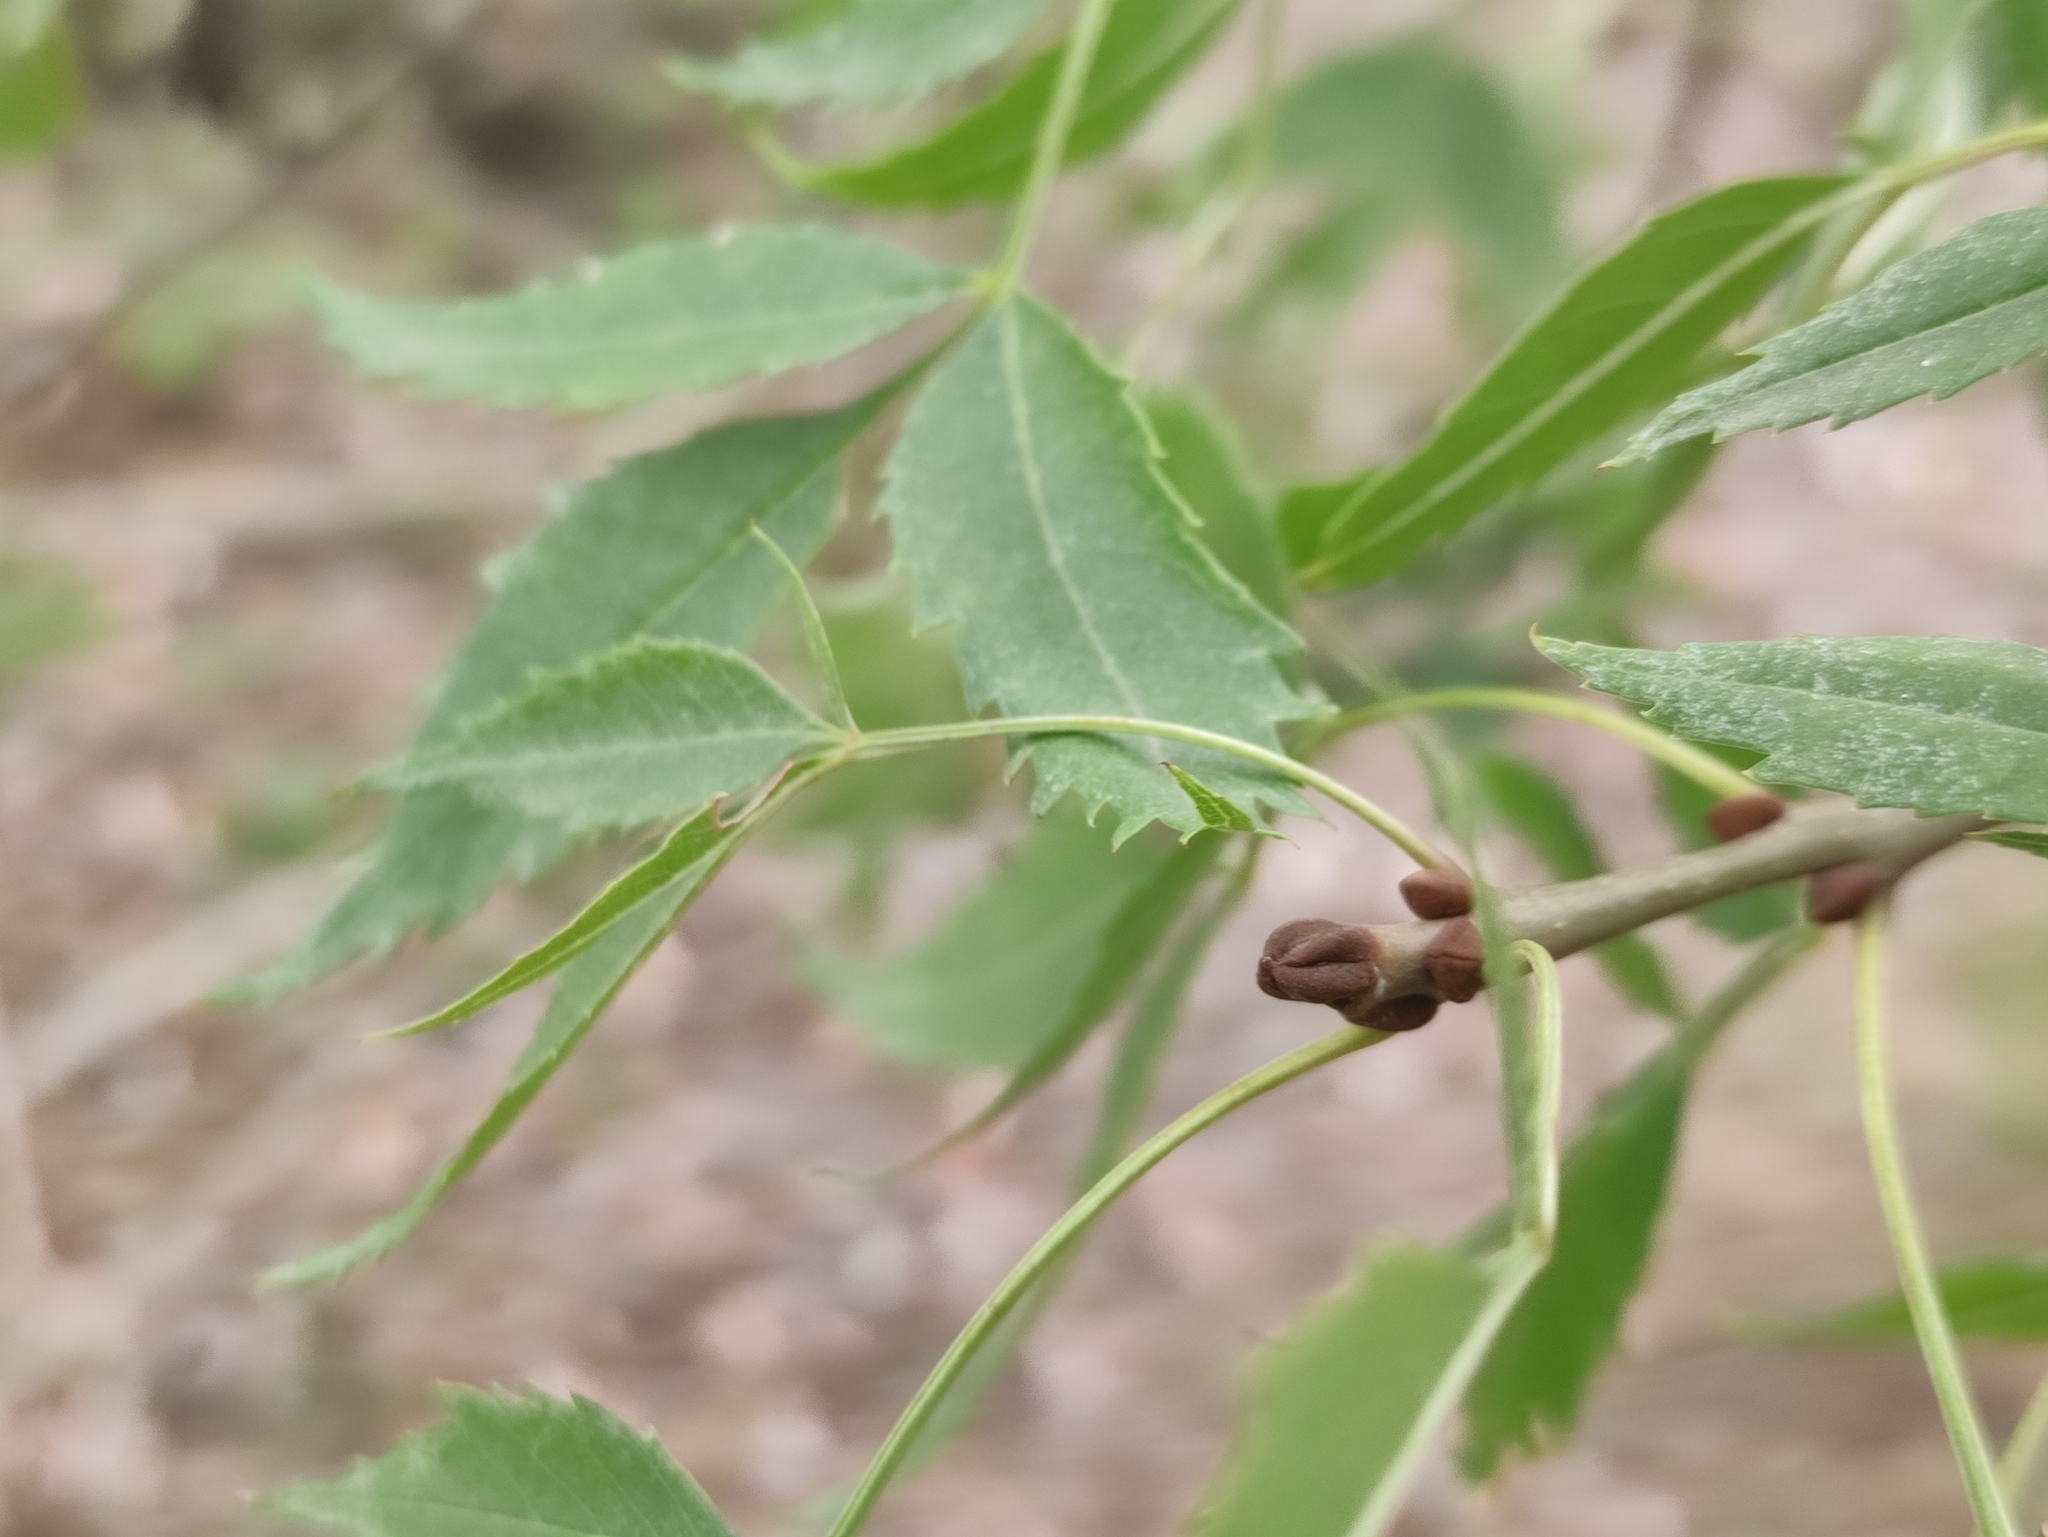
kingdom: Plantae
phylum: Tracheophyta
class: Magnoliopsida
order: Lamiales
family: Oleaceae
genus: Fraxinus
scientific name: Fraxinus angustifolia
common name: Narrow-leafed ash
